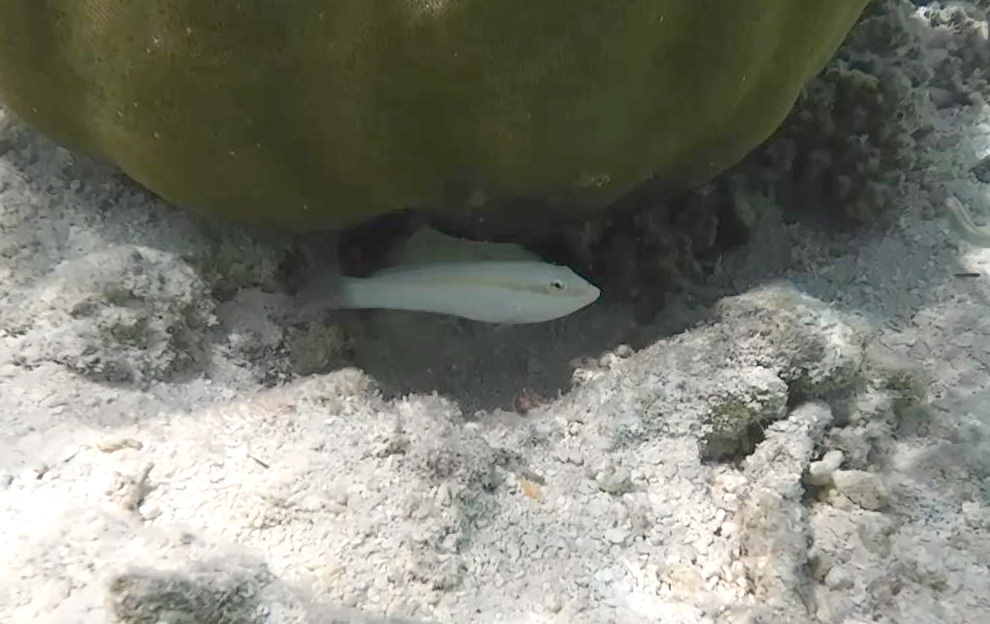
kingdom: Animalia
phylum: Chordata
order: Perciformes
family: Labridae
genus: Halichoeres
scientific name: Halichoeres scapularis
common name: Brownbanded wrasse
